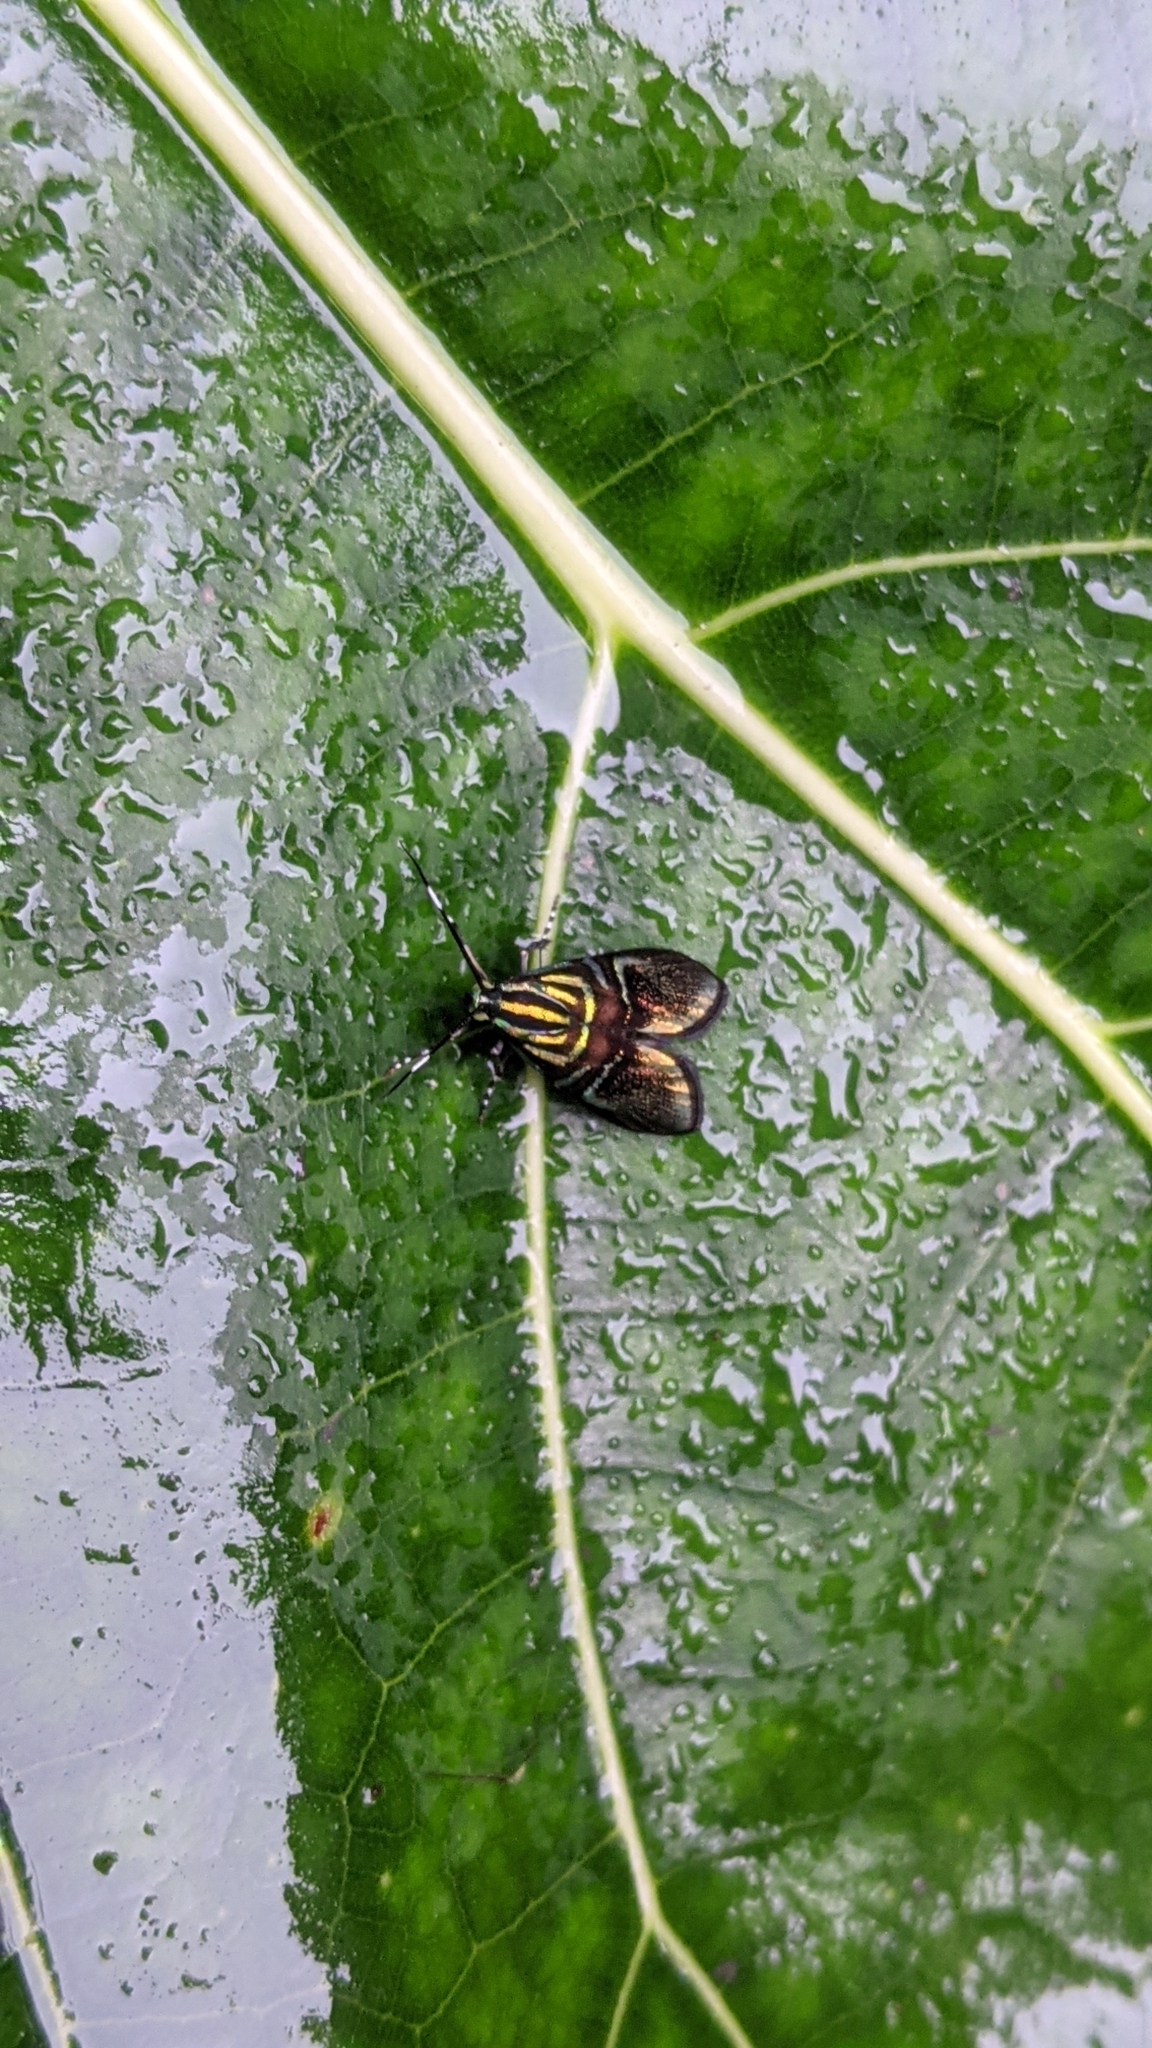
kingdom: Animalia
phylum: Arthropoda
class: Insecta
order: Lepidoptera
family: Choreutidae
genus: Saptha
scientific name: Saptha divitiosa
